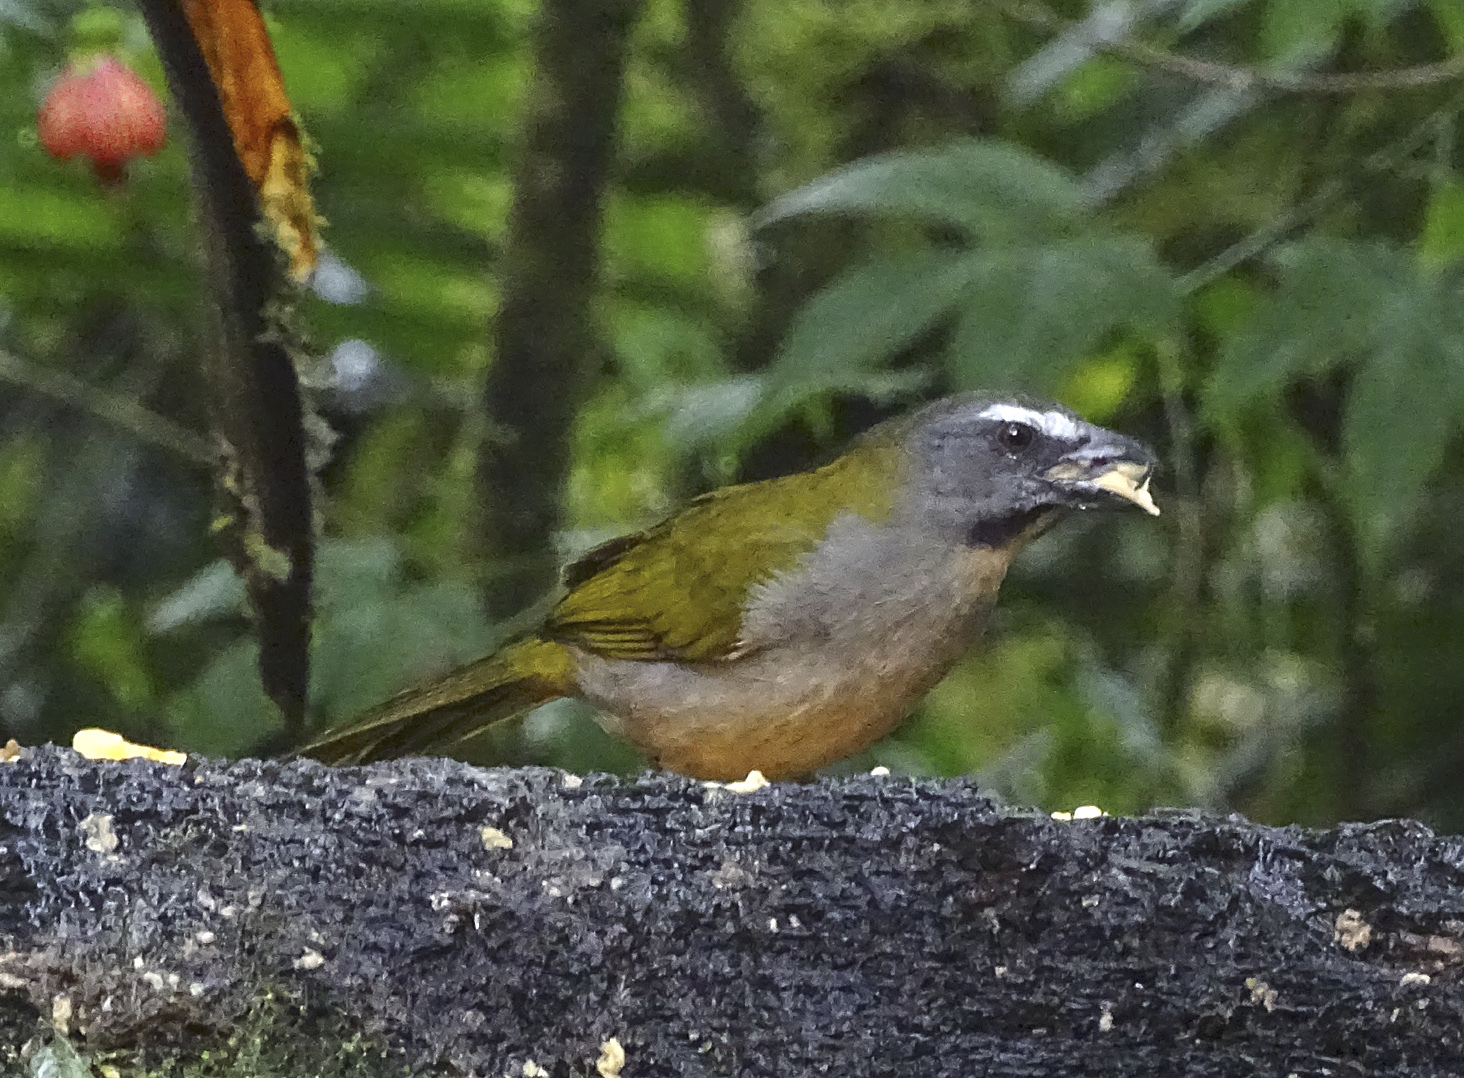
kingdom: Animalia
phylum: Chordata
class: Aves
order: Passeriformes
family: Thraupidae
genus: Saltator
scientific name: Saltator maximus
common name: Buff-throated saltator
